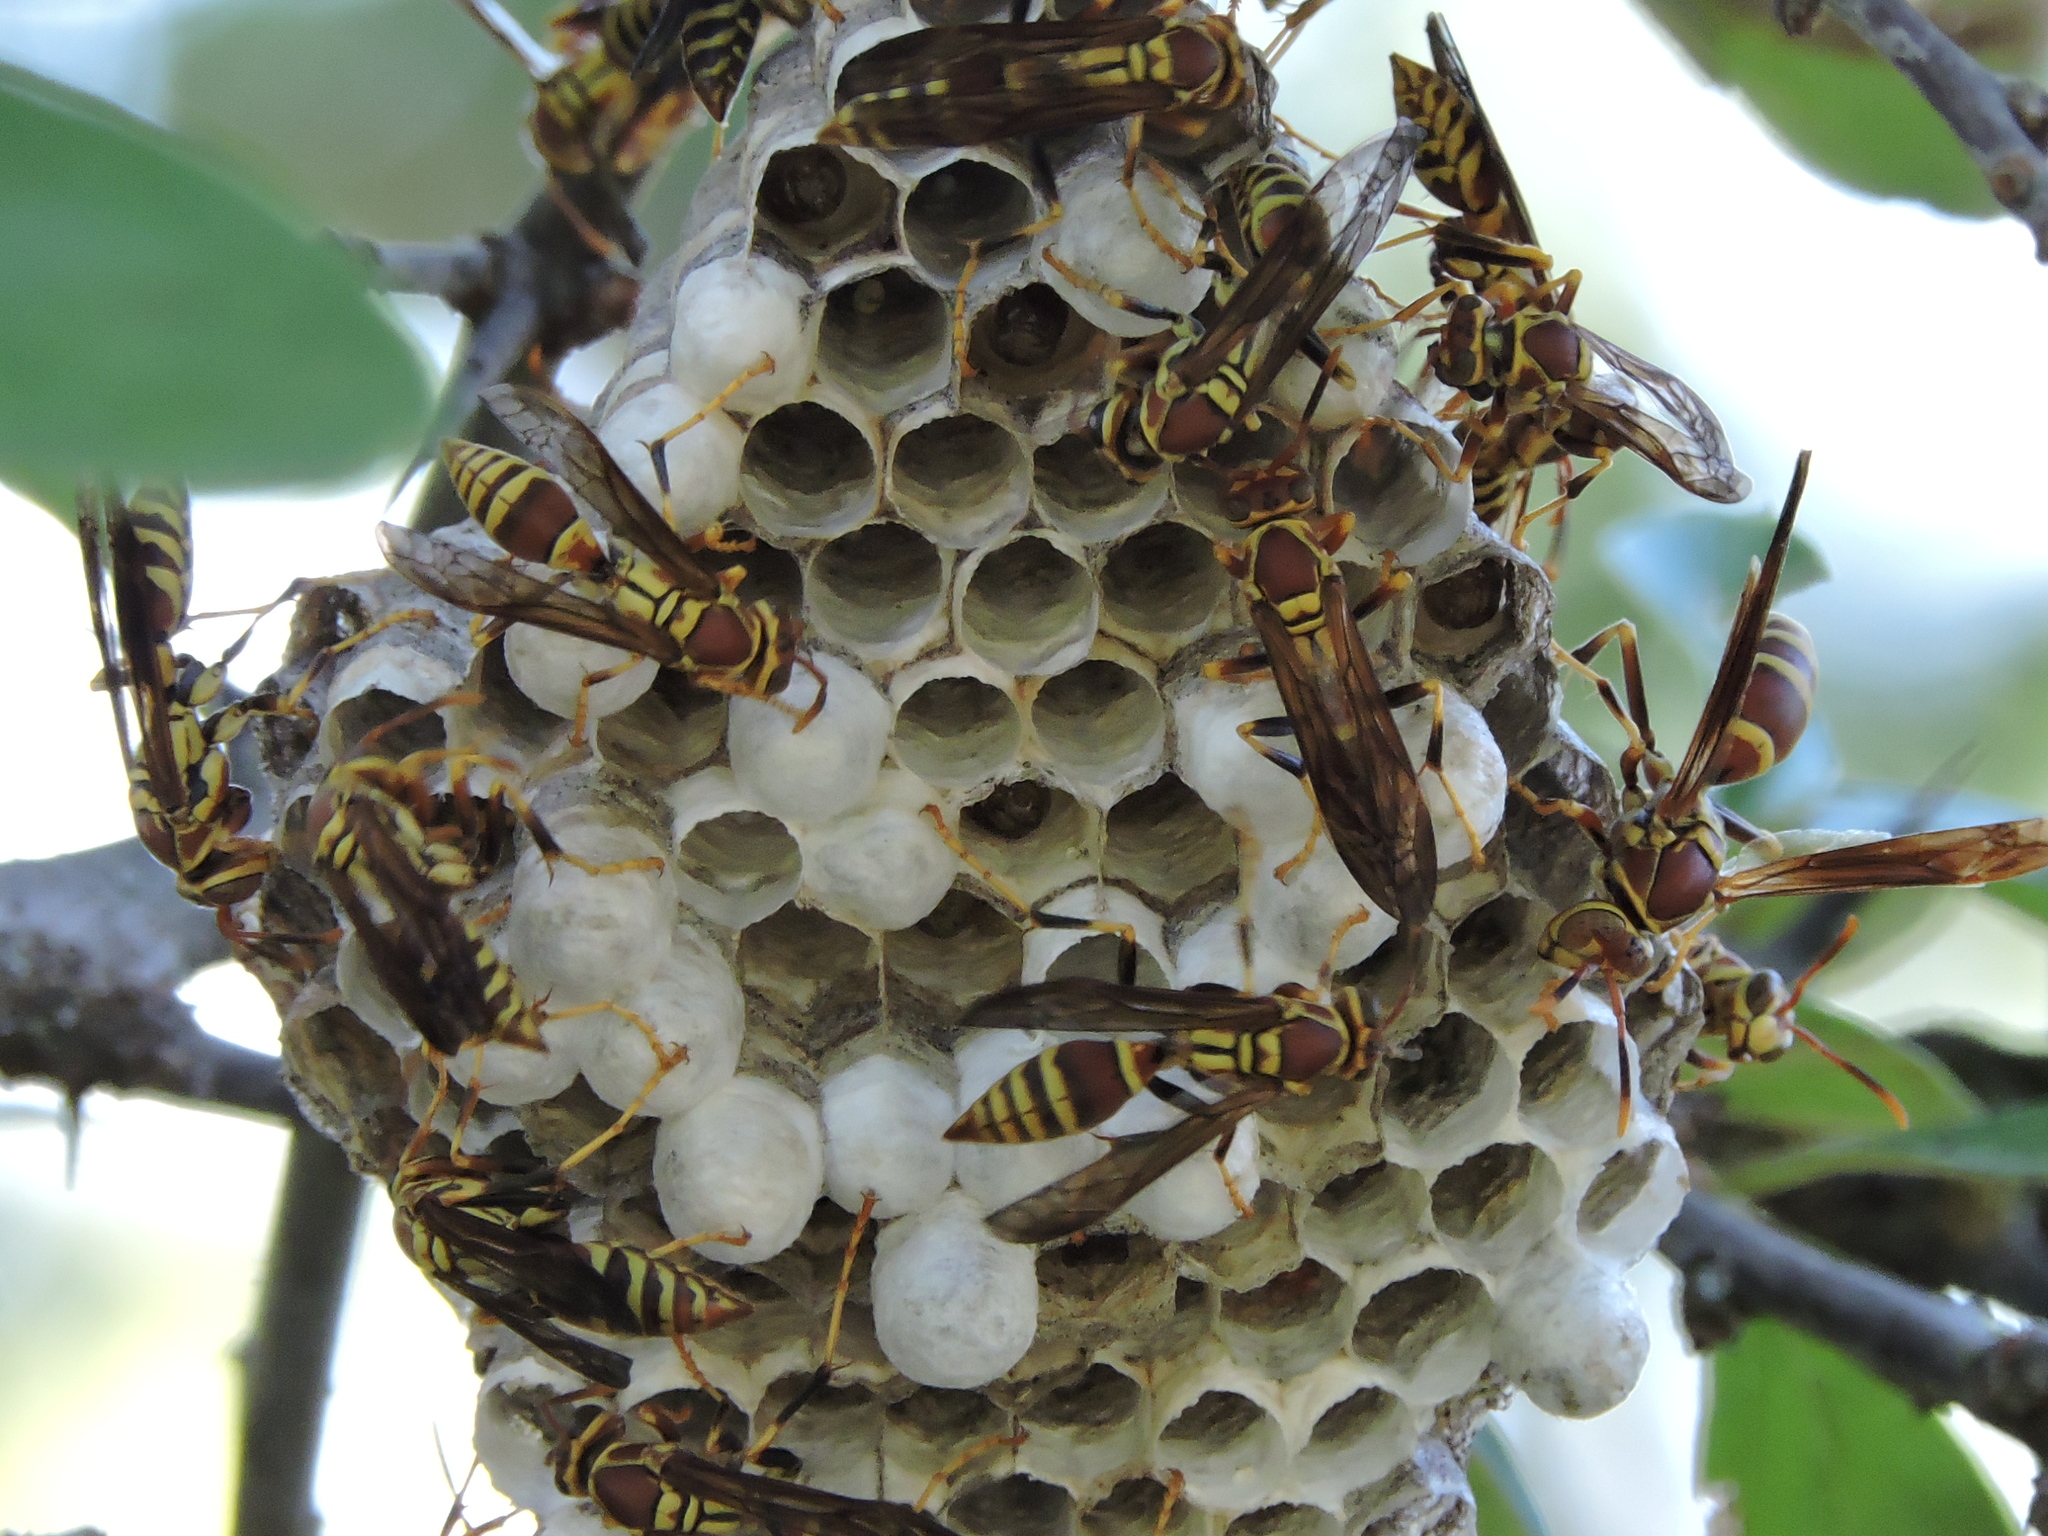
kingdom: Animalia
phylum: Arthropoda
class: Insecta
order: Hymenoptera
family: Eumenidae
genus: Polistes
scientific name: Polistes exclamans
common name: Paper wasp
